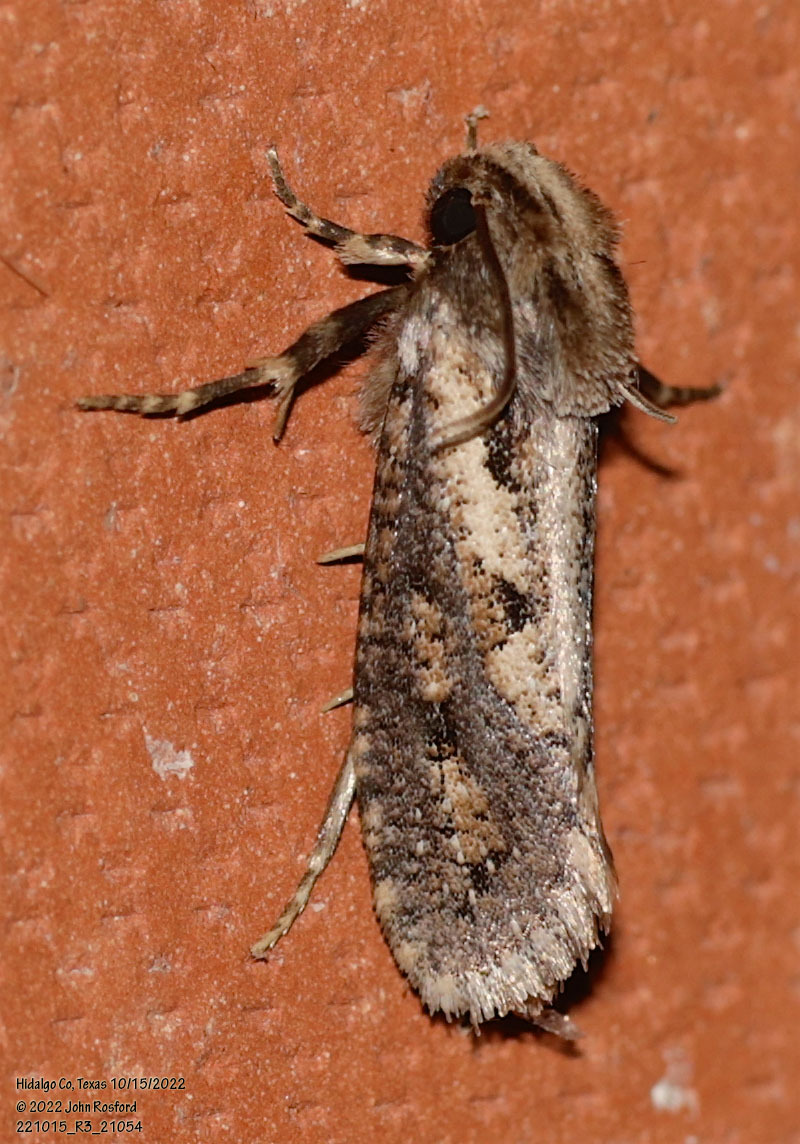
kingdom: Animalia
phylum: Arthropoda
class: Insecta
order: Lepidoptera
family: Tineidae
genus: Acrolophus
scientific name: Acrolophus popeanella
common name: Clemens' grass tubeworm moth
